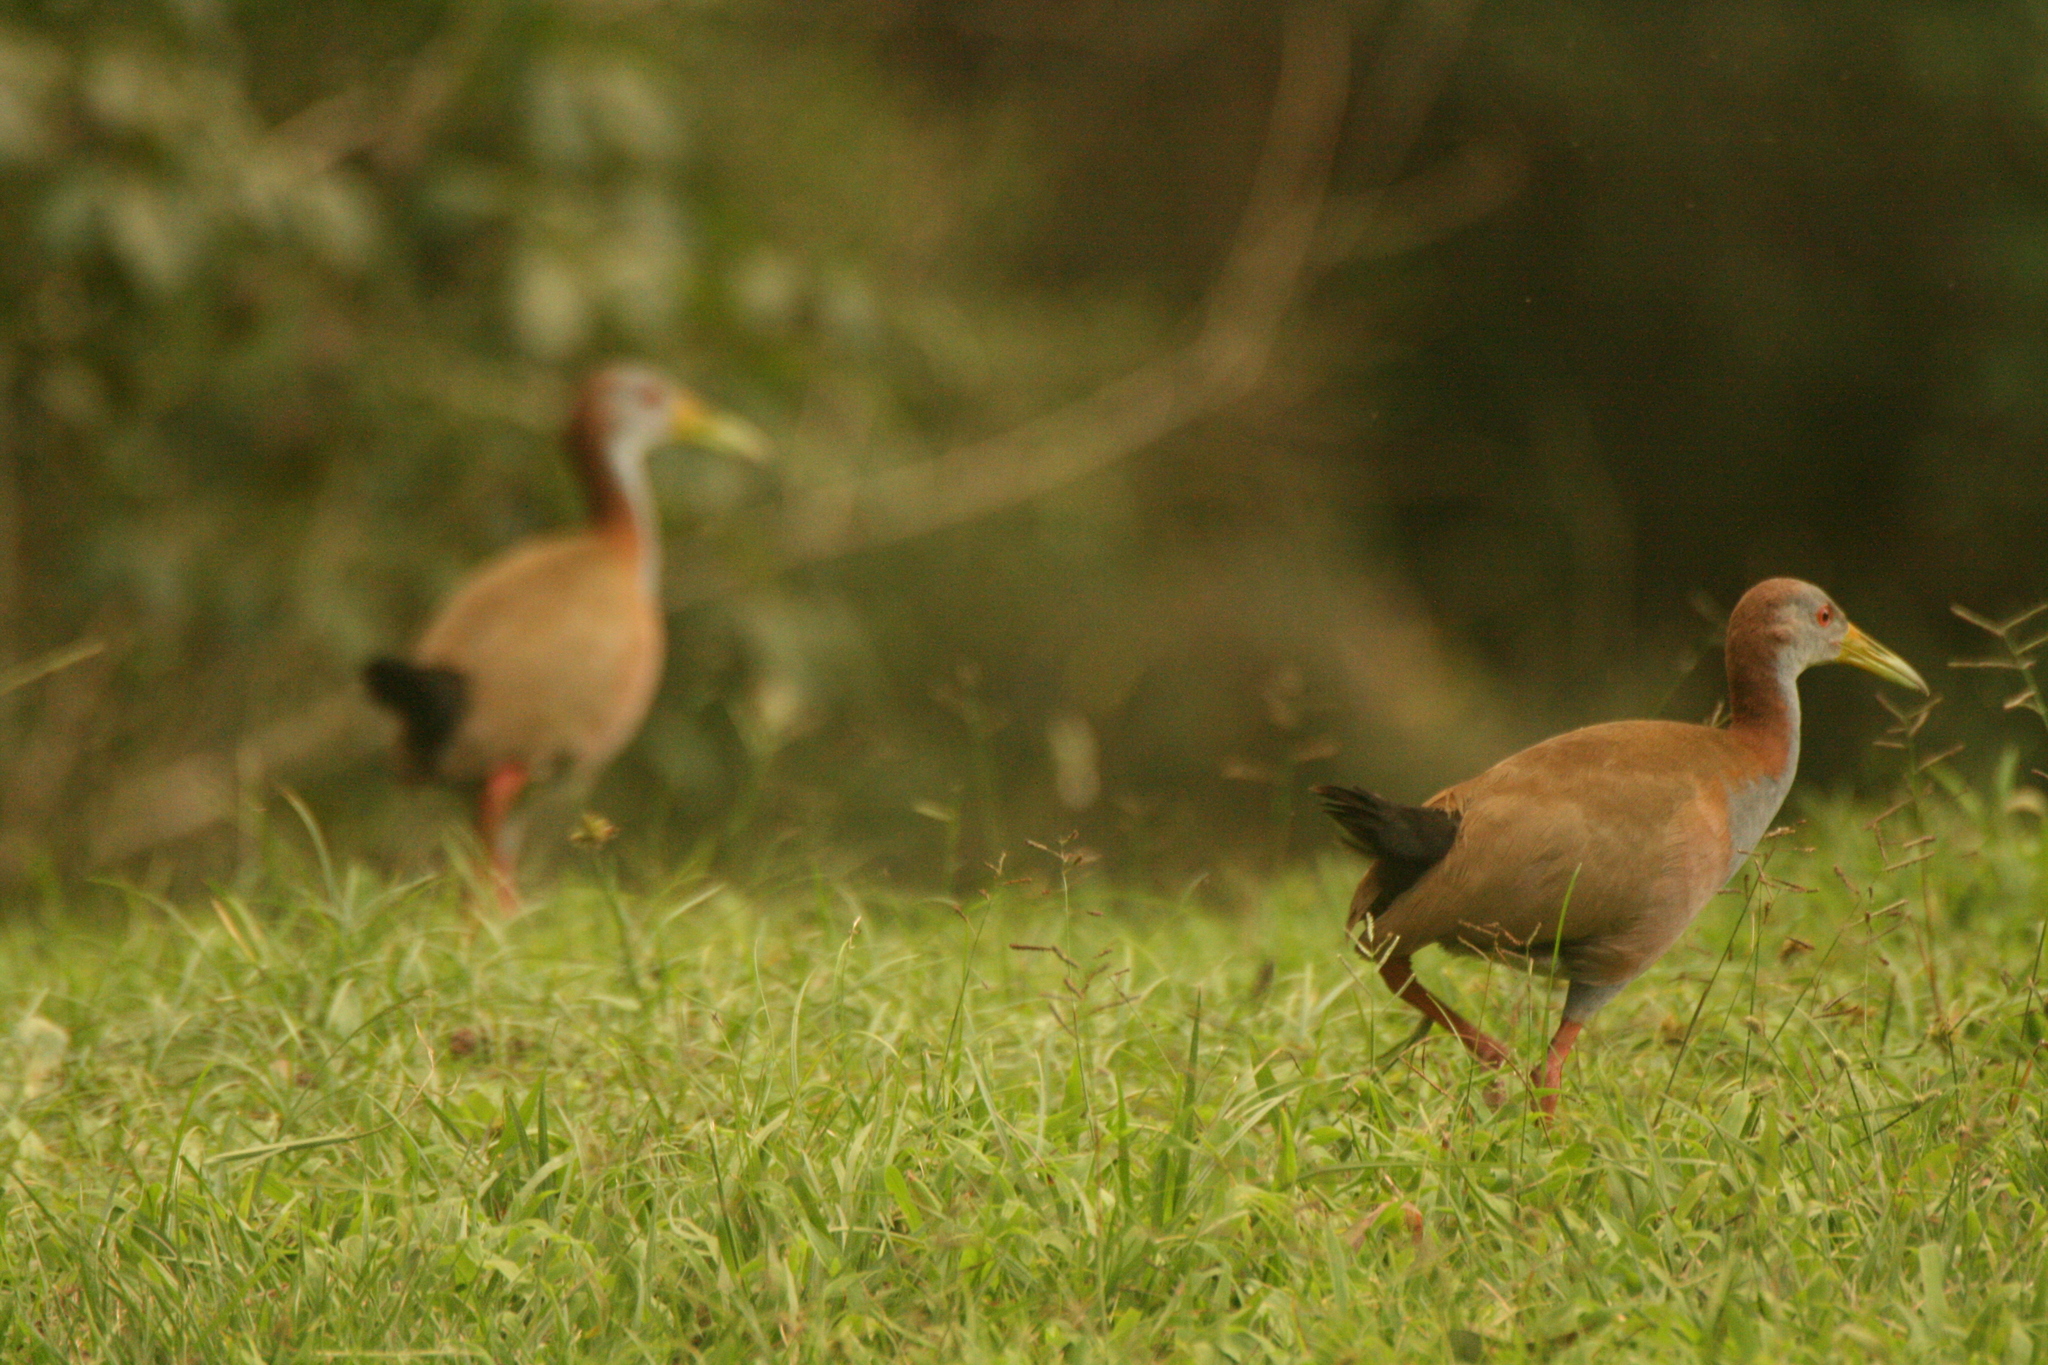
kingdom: Animalia
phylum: Chordata
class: Aves
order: Gruiformes
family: Rallidae
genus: Aramides
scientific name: Aramides ypecaha
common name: Giant wood rail
